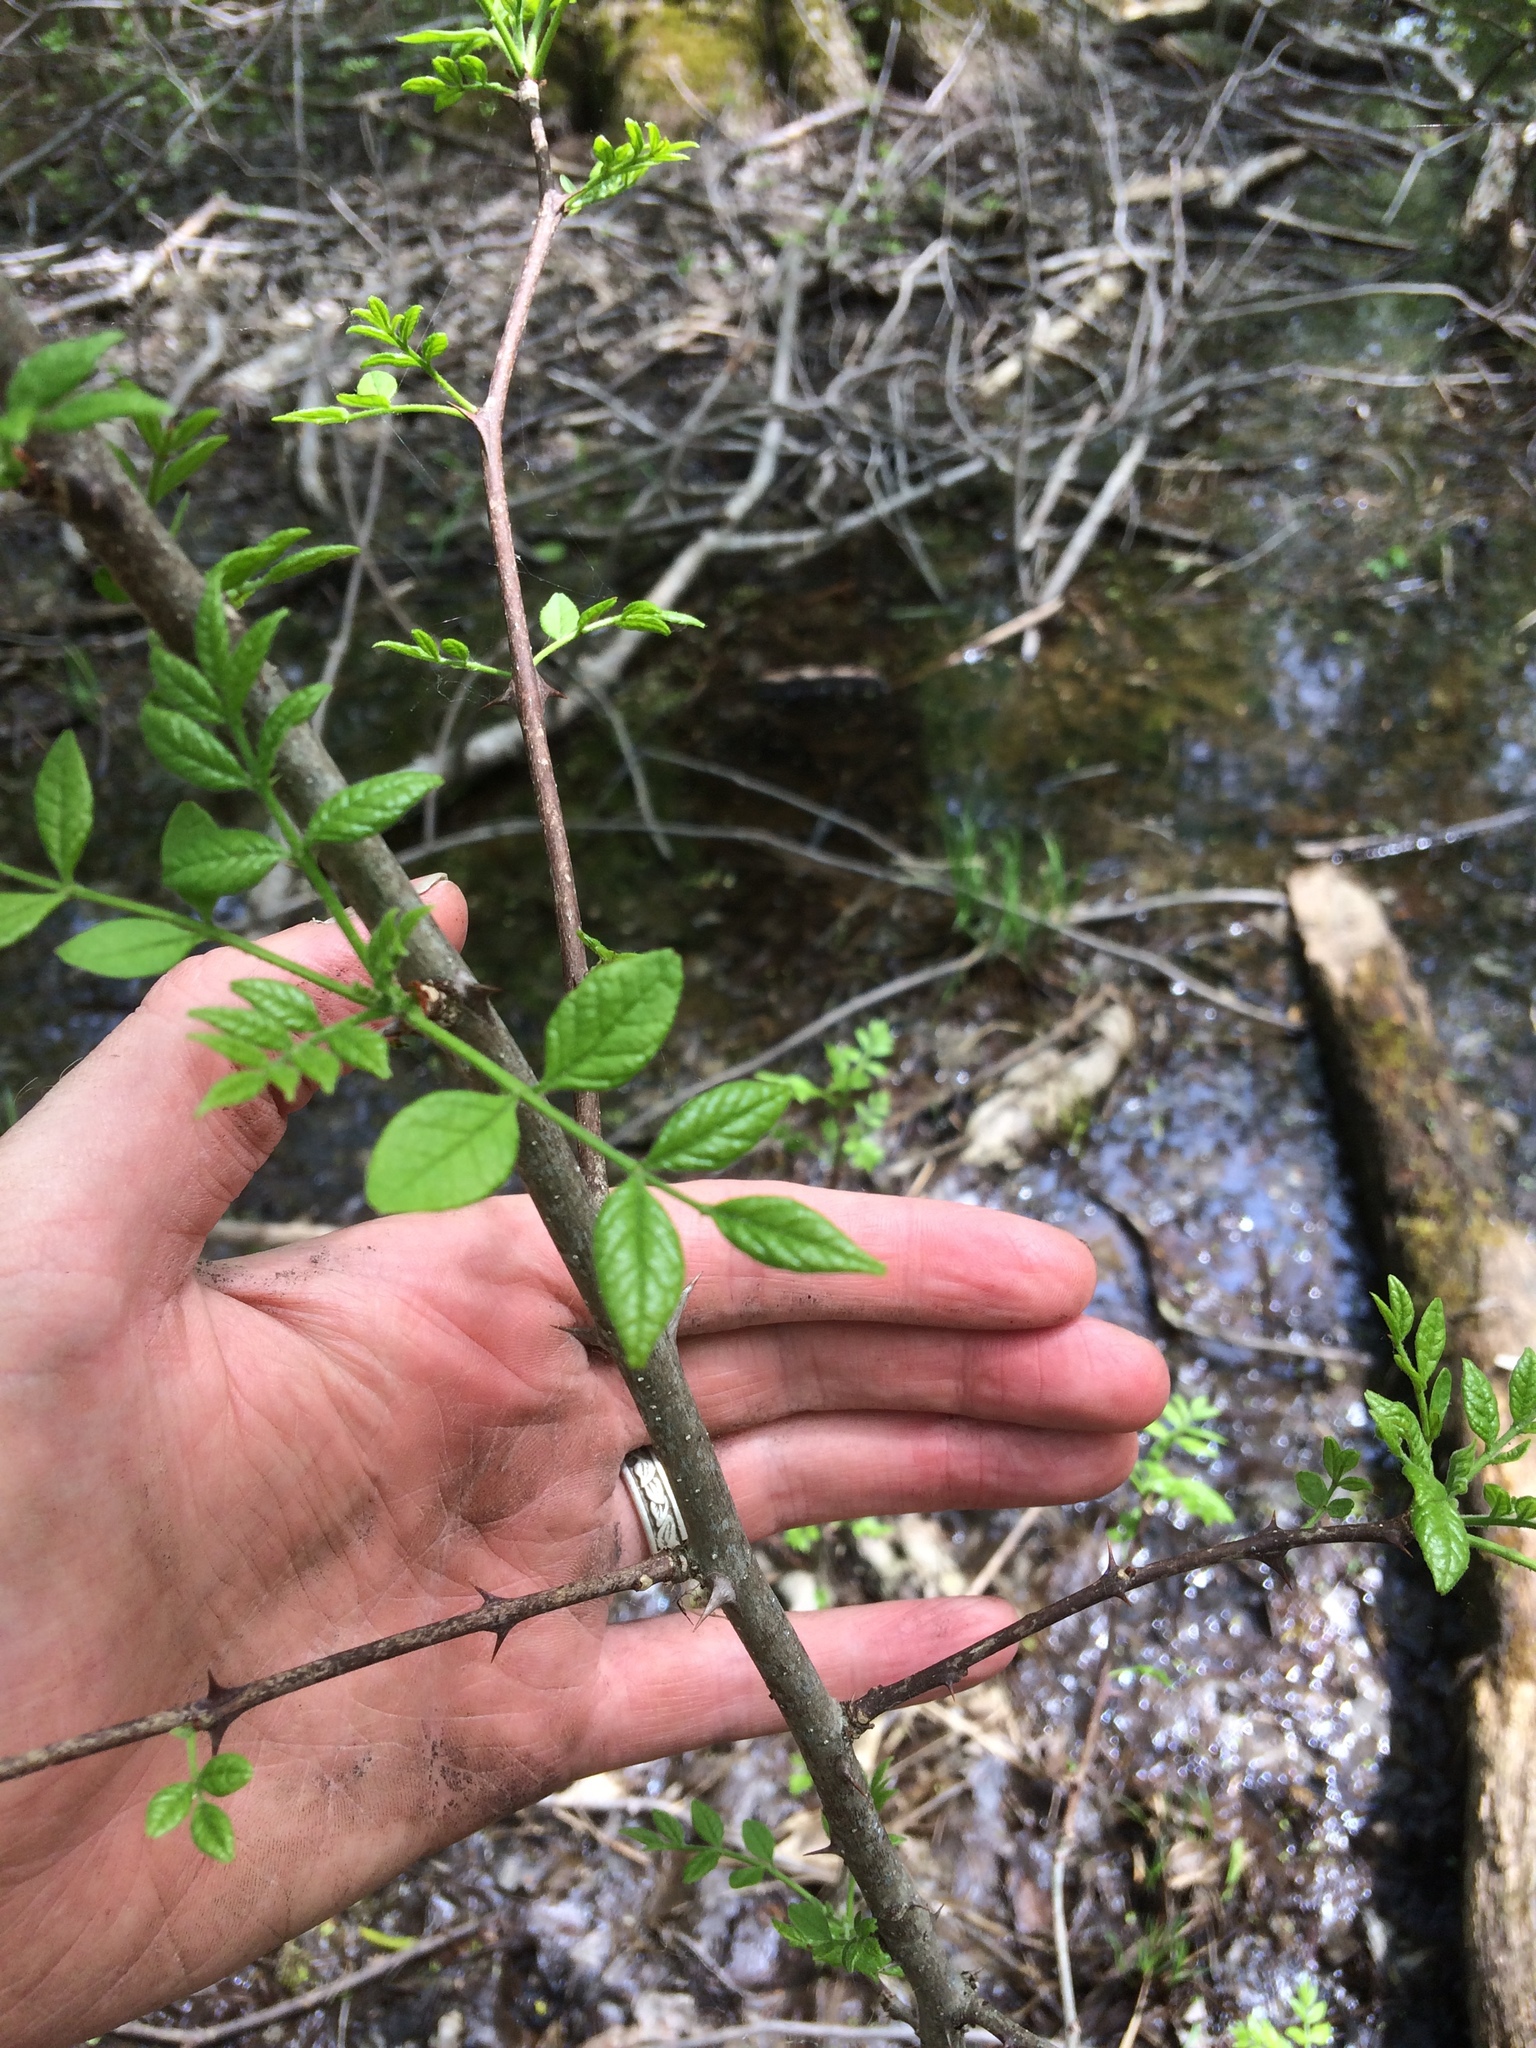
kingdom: Plantae
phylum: Tracheophyta
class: Magnoliopsida
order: Sapindales
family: Rutaceae
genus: Zanthoxylum
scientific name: Zanthoxylum americanum
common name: Northern prickly-ash
